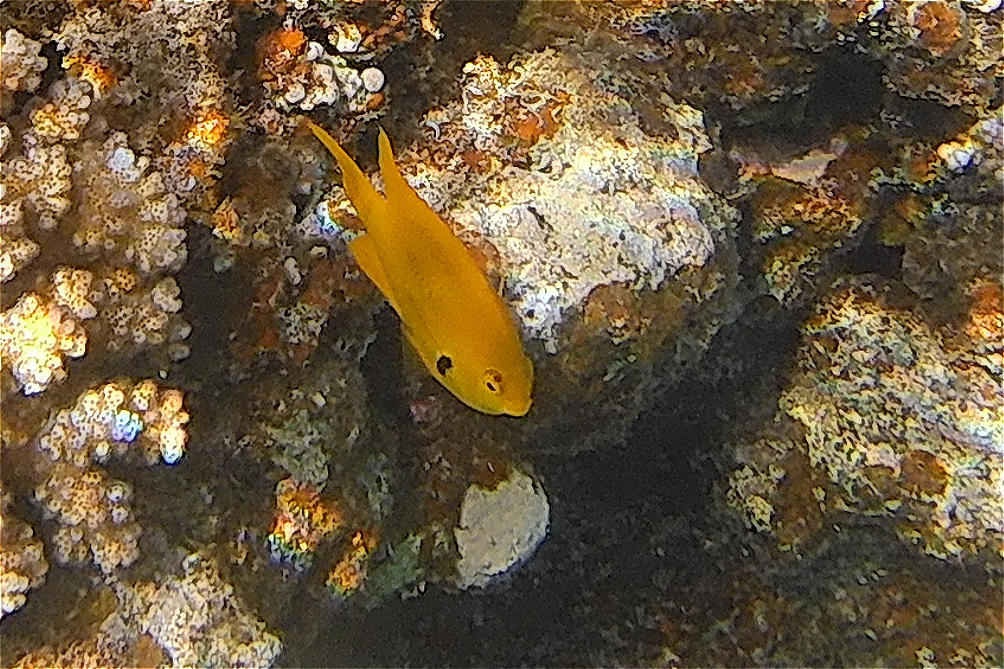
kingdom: Animalia
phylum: Chordata
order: Perciformes
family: Pomacentridae
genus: Pomacentrus
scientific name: Pomacentrus sulfureus
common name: Sulfur damsel
